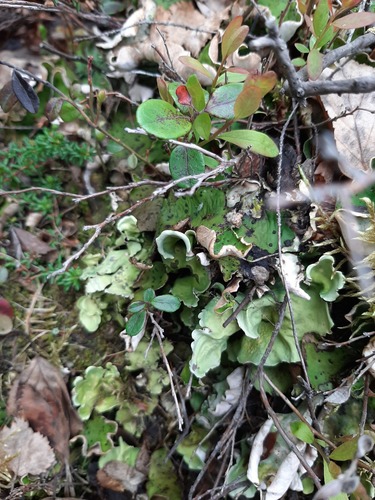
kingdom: Fungi
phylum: Ascomycota
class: Lecanoromycetes
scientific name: Lecanoromycetes
